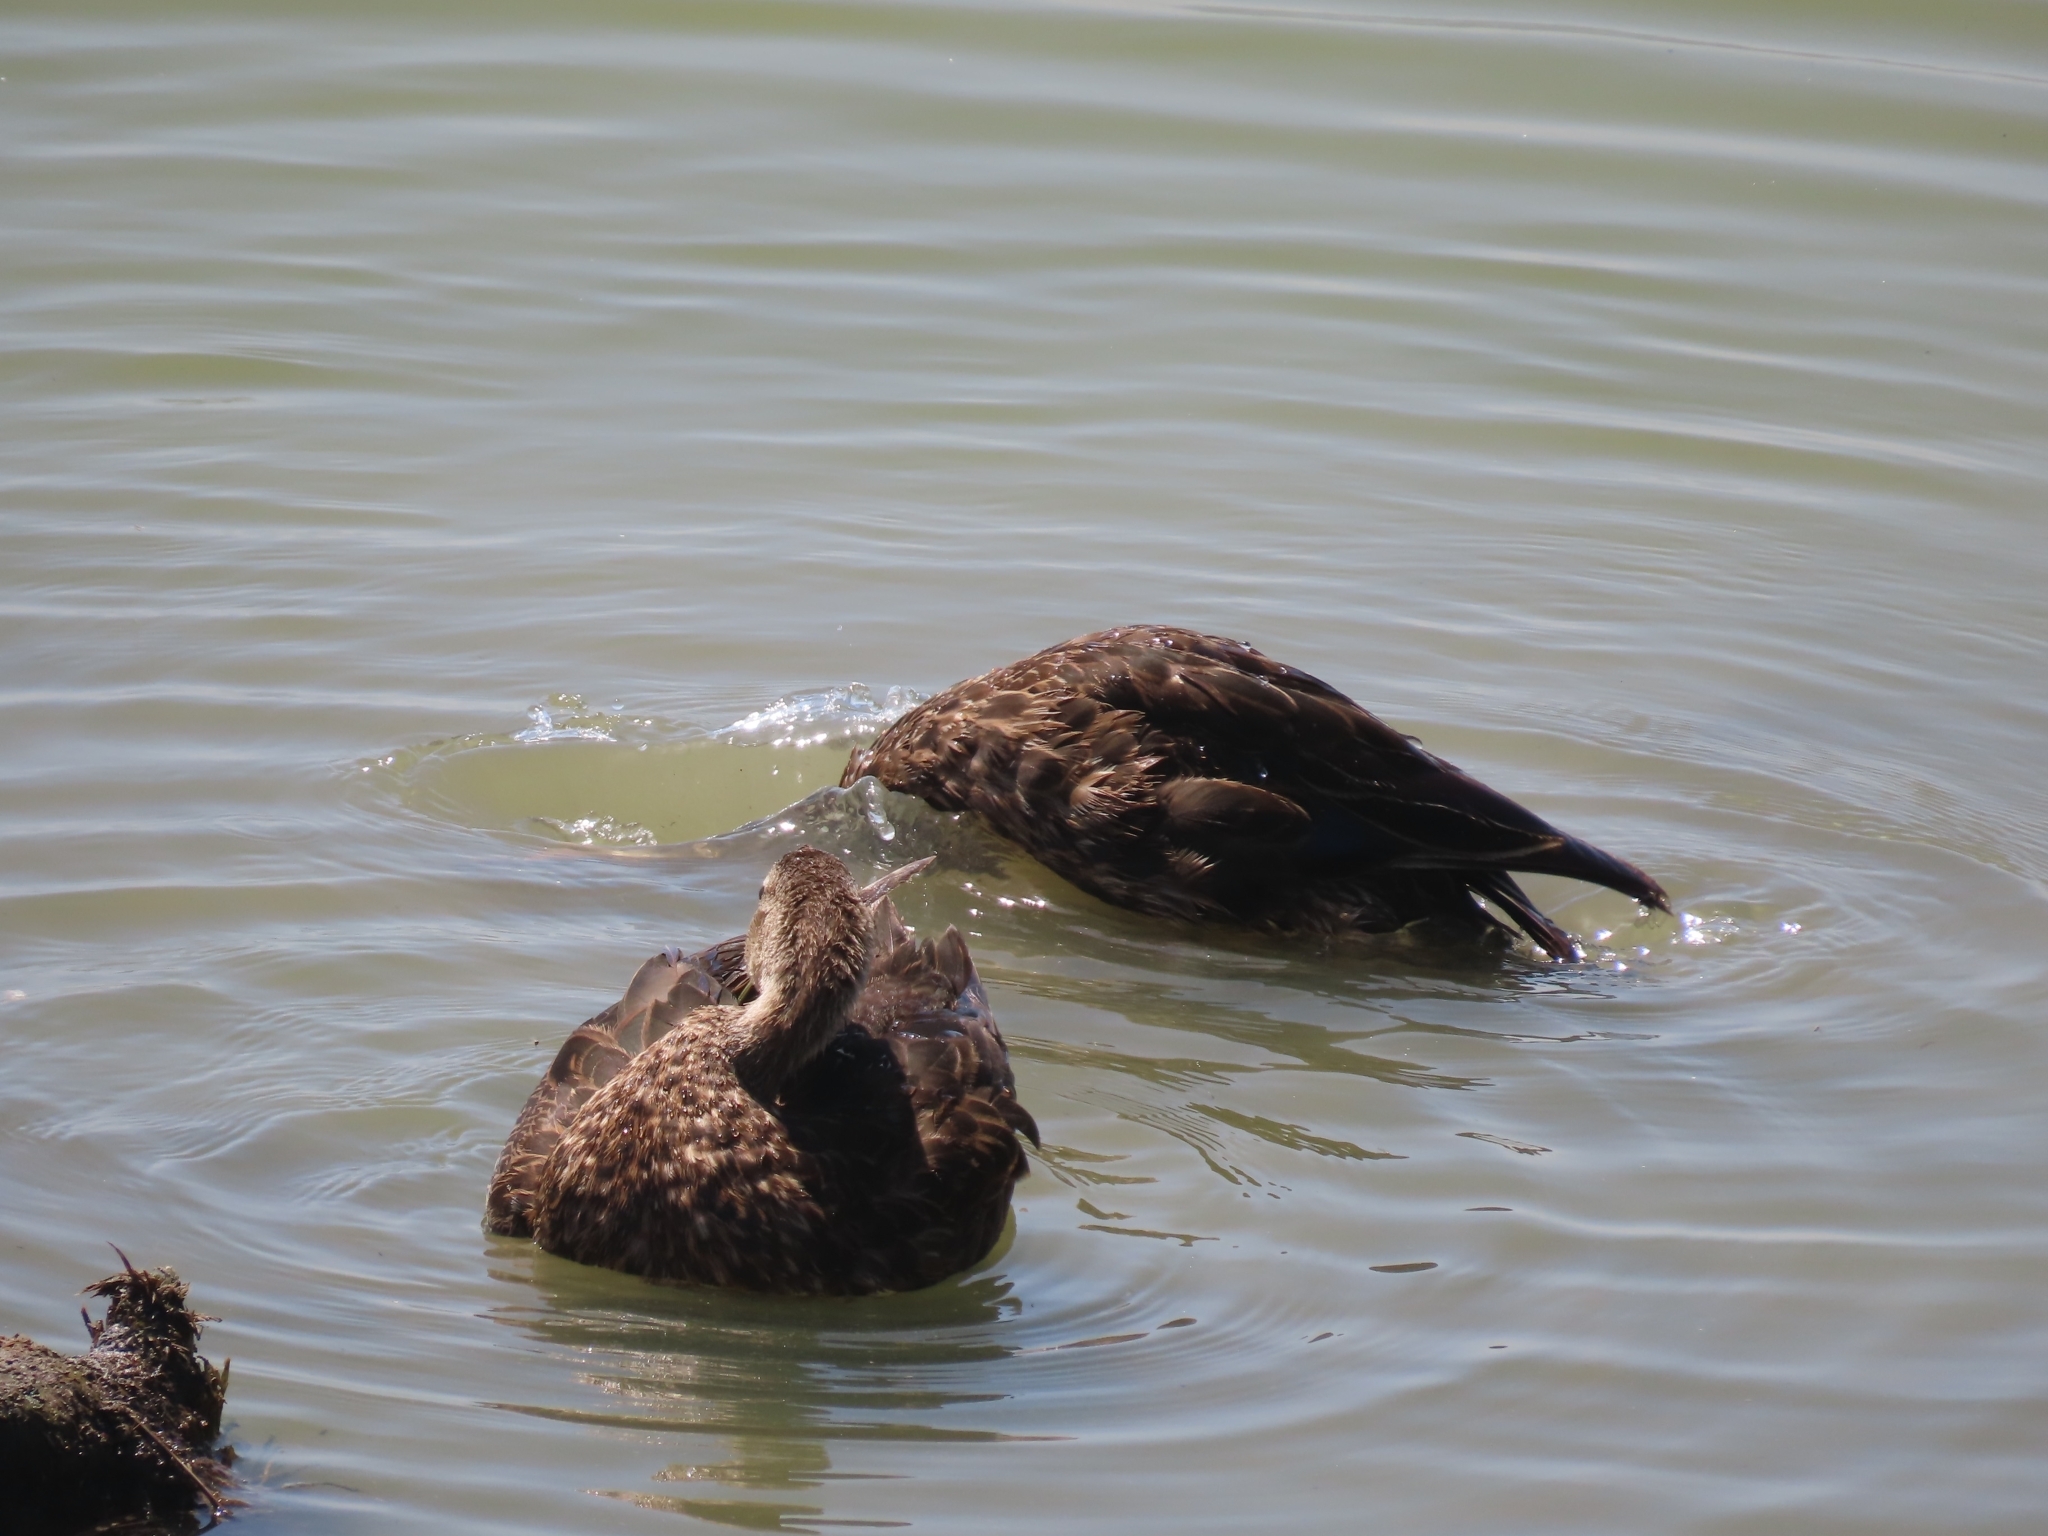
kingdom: Animalia
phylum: Chordata
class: Aves
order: Anseriformes
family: Anatidae
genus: Anas
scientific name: Anas fulvigula
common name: Mottled duck
